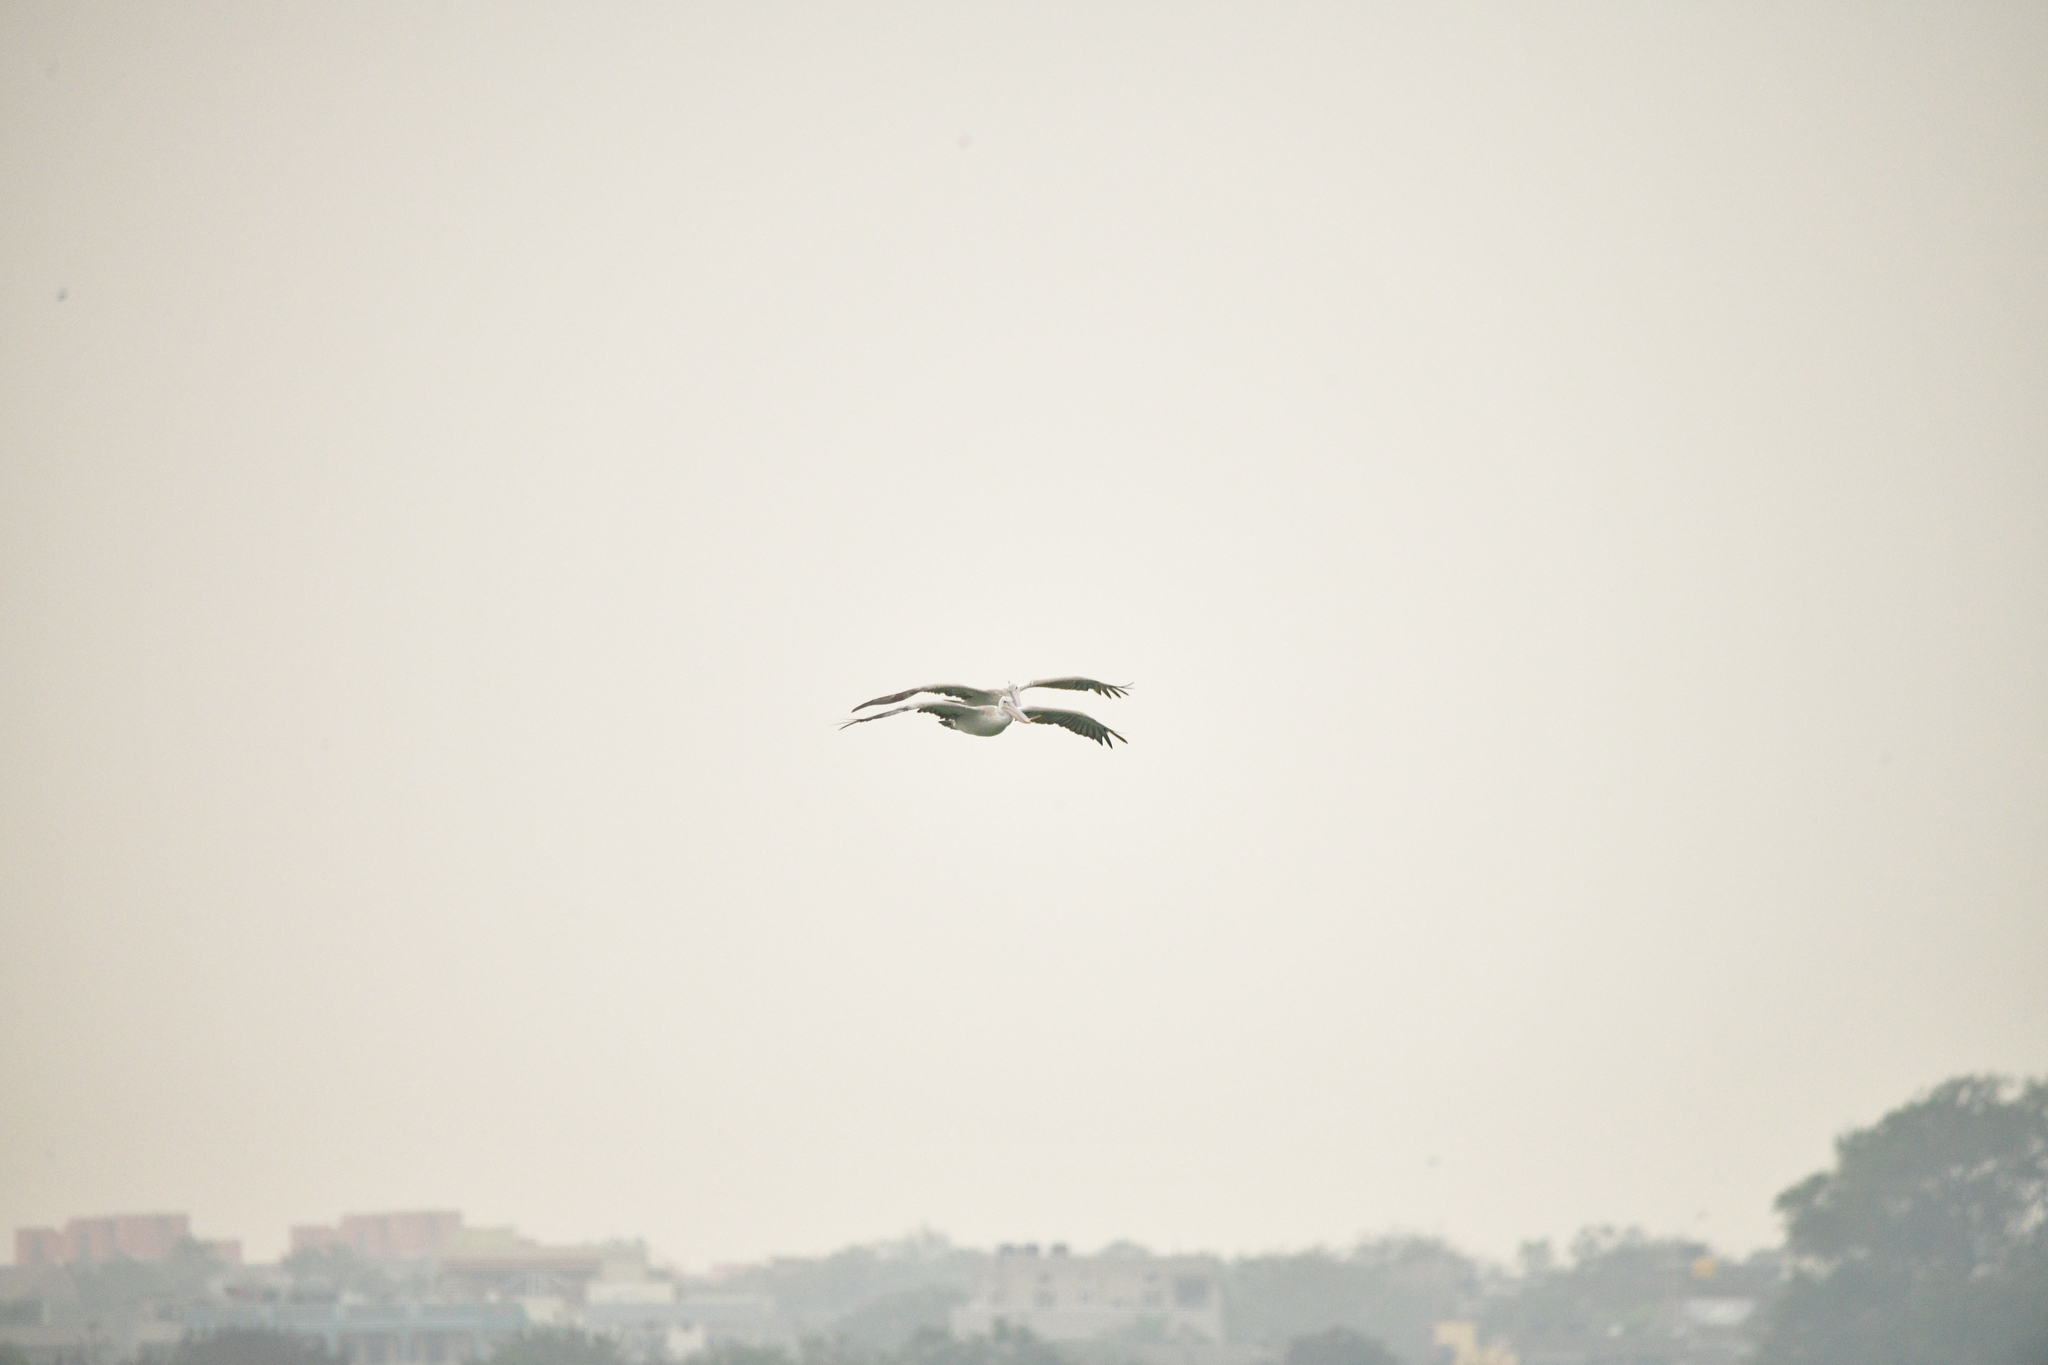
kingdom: Animalia
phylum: Chordata
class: Aves
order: Pelecaniformes
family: Pelecanidae
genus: Pelecanus
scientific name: Pelecanus philippensis
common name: Spot-billed pelican
